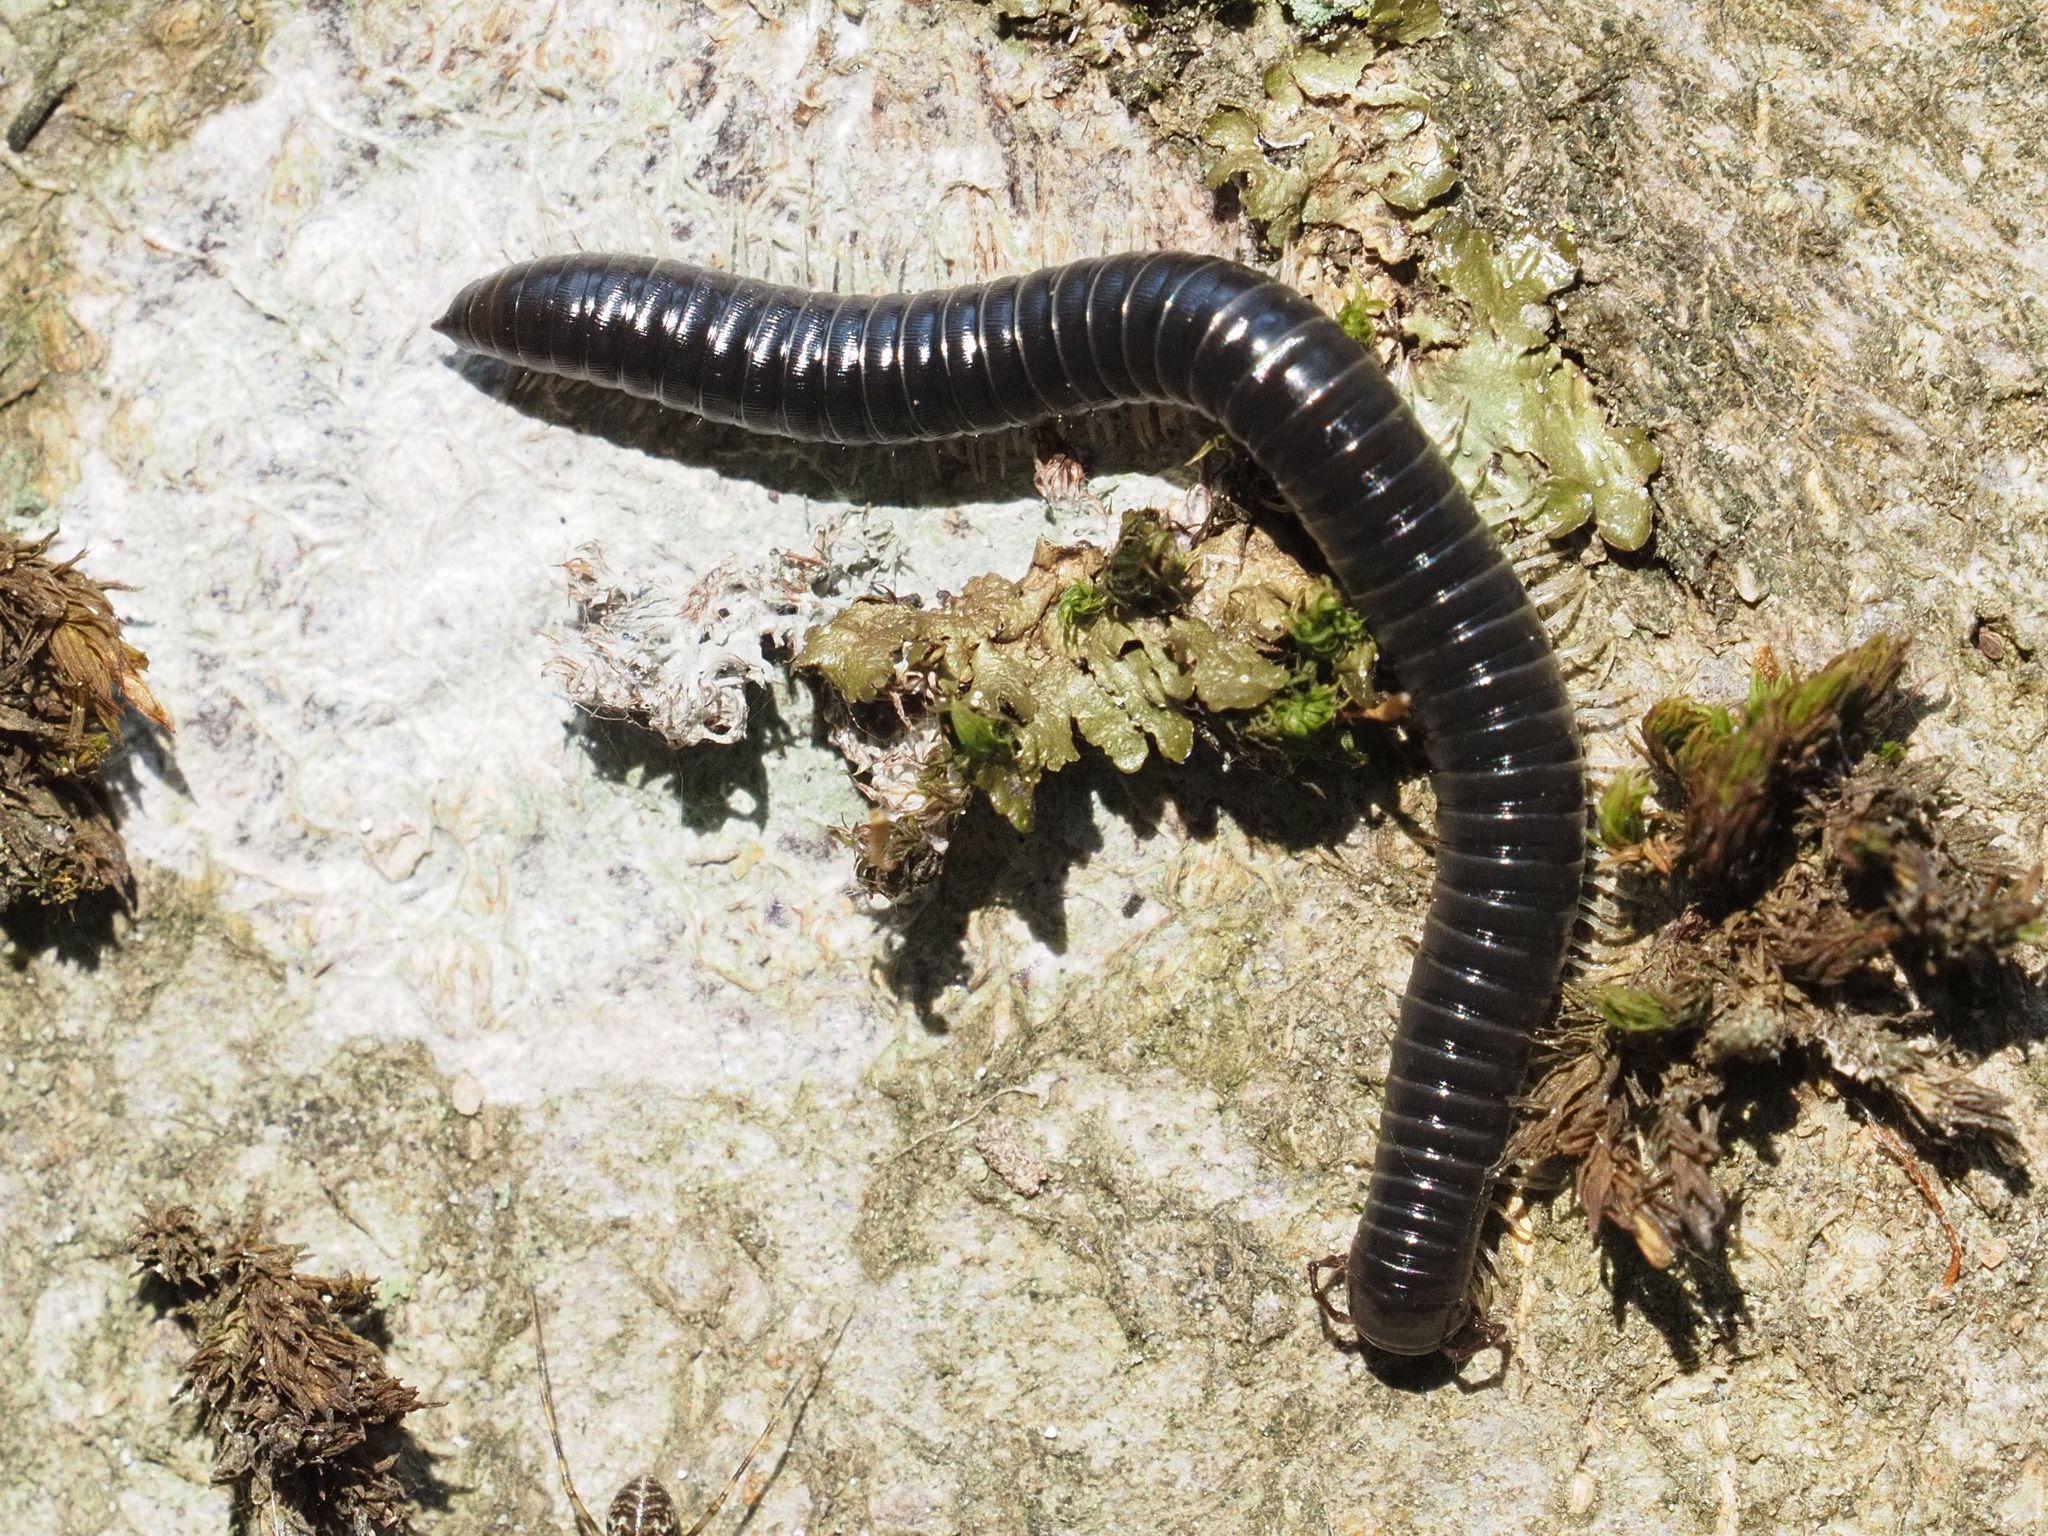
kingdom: Animalia
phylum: Arthropoda
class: Diplopoda
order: Julida
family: Julidae
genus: Tachypodoiulus
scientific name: Tachypodoiulus niger
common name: White-legged snake millipede
